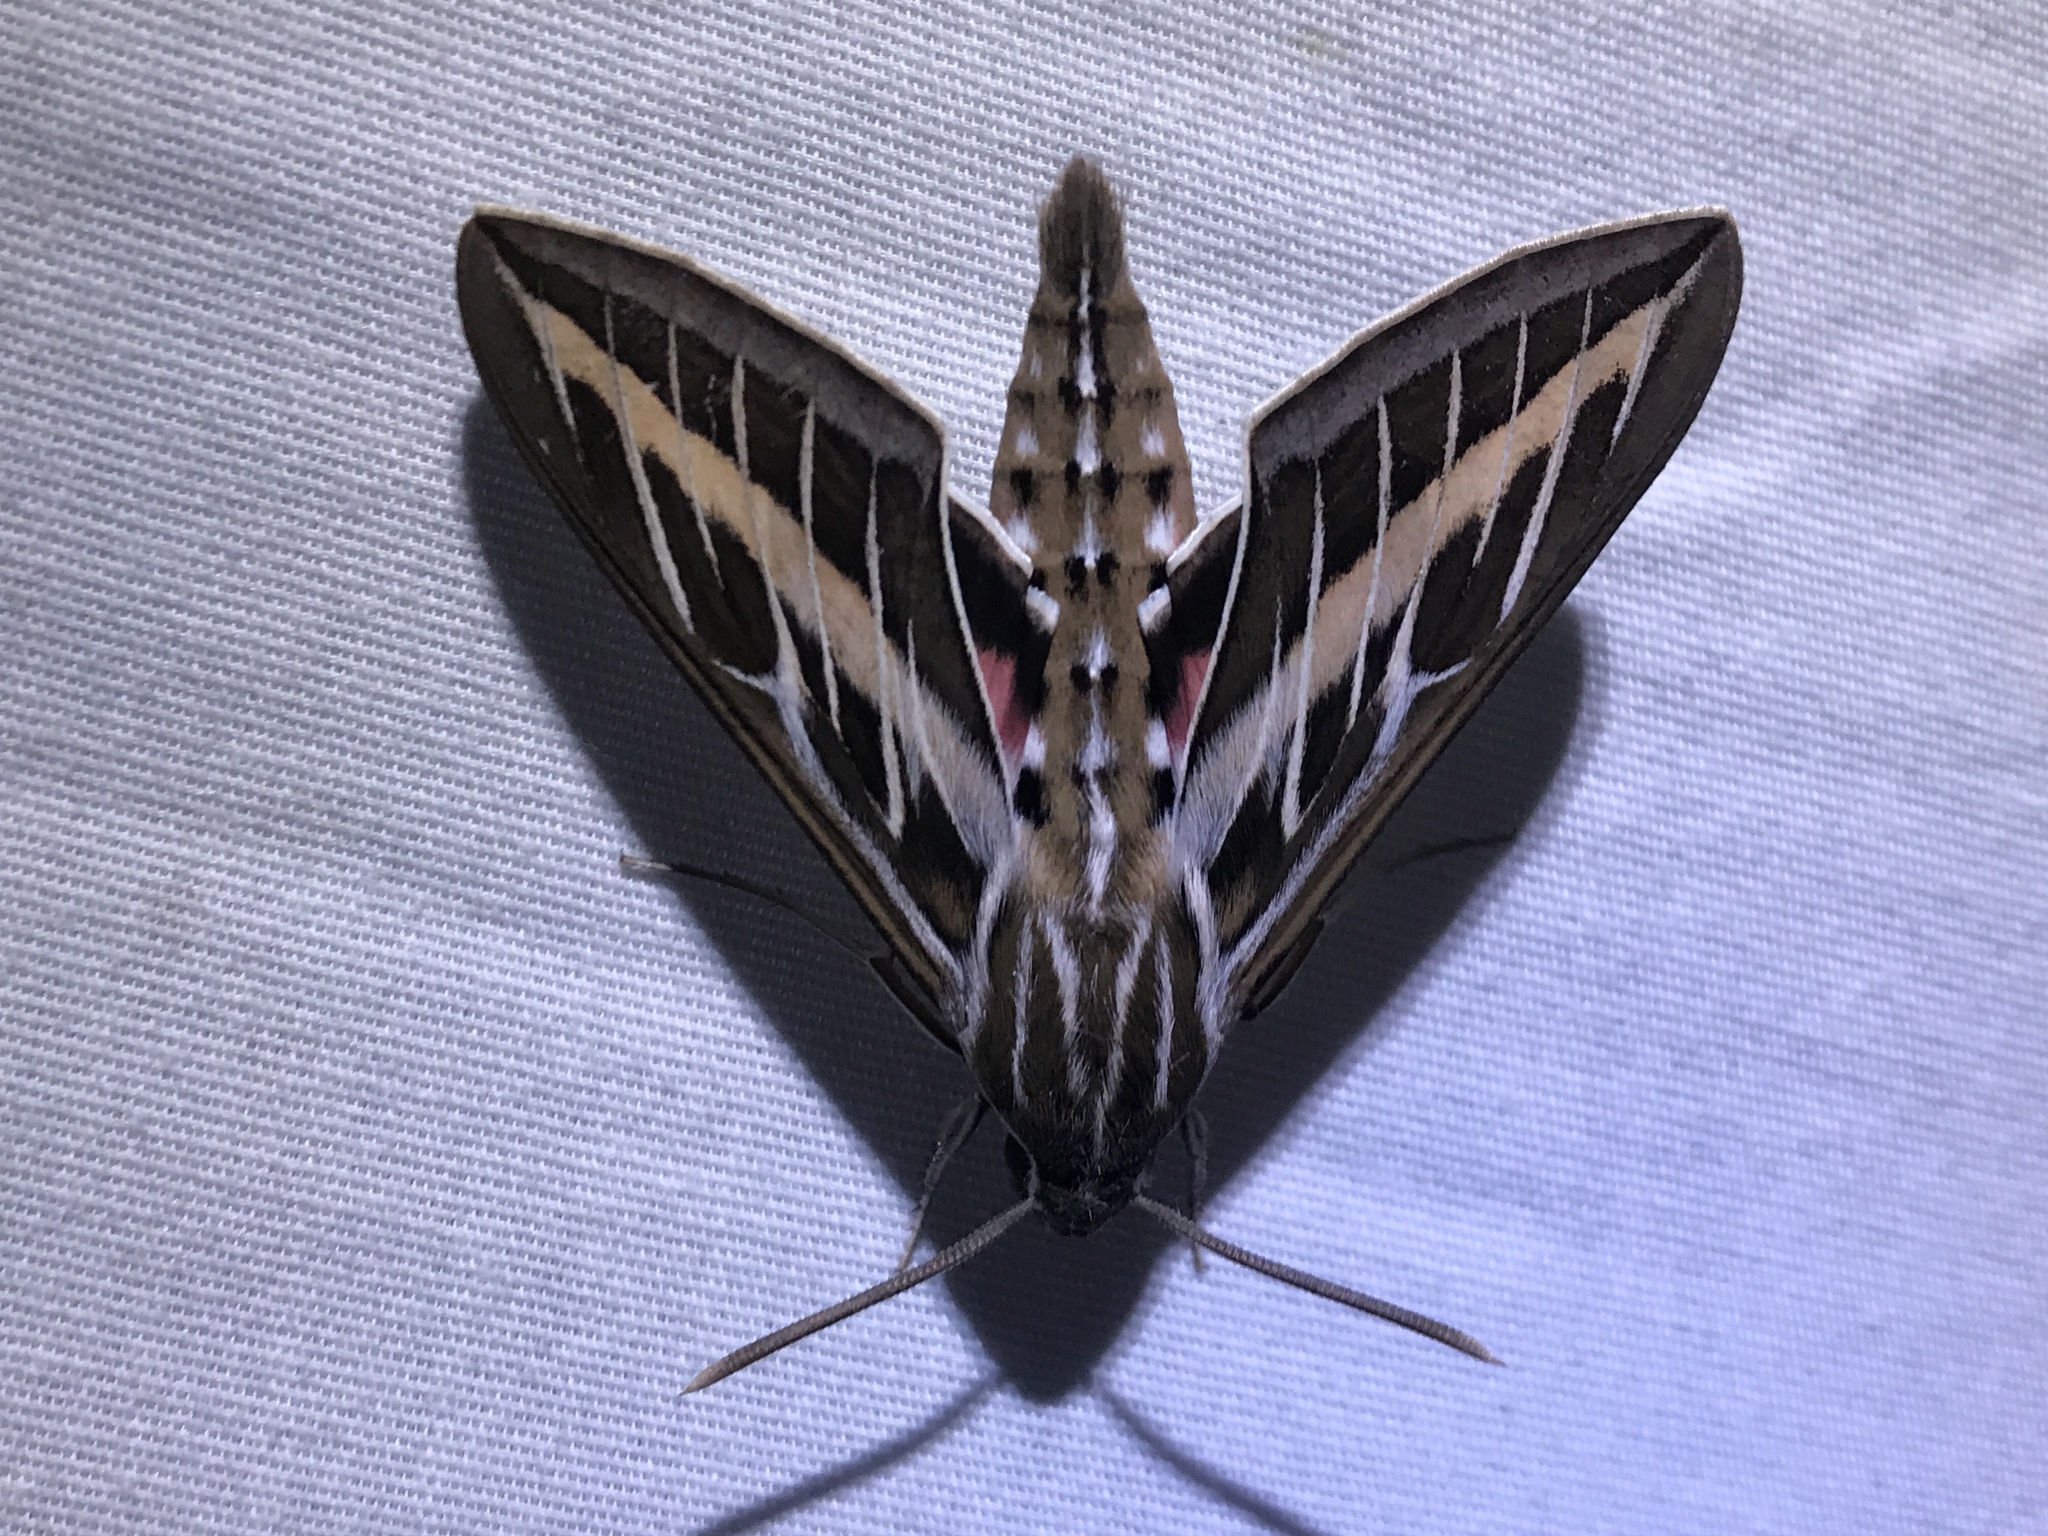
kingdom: Animalia
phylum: Arthropoda
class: Insecta
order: Lepidoptera
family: Sphingidae
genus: Hyles
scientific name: Hyles lineata
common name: White-lined sphinx
